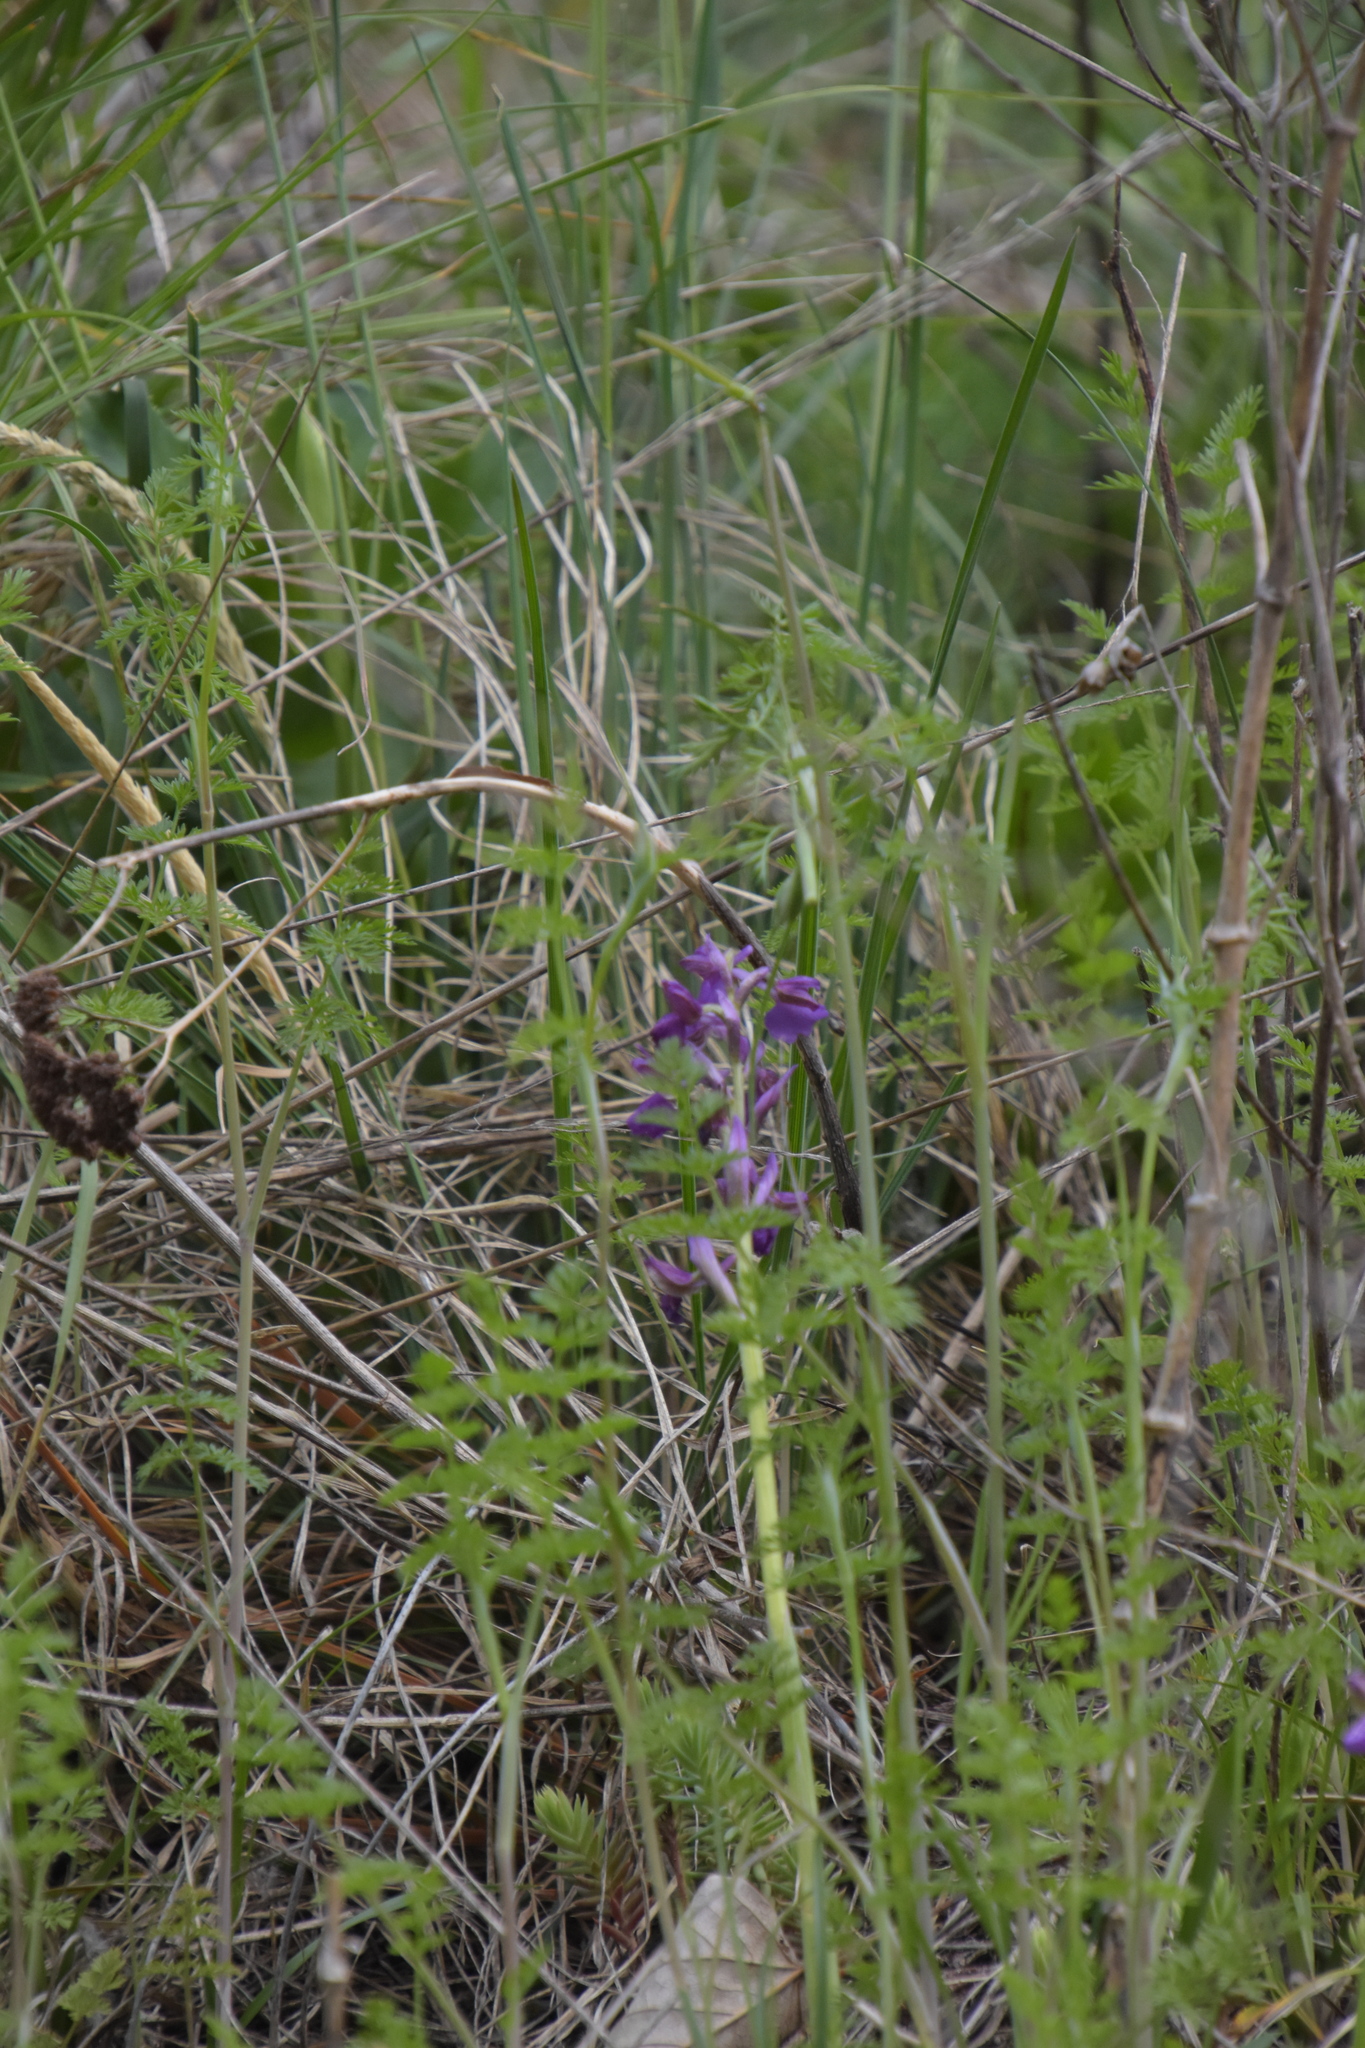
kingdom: Plantae
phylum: Tracheophyta
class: Liliopsida
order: Asparagales
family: Orchidaceae
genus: Anacamptis
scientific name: Anacamptis morio
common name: Green-winged orchid
